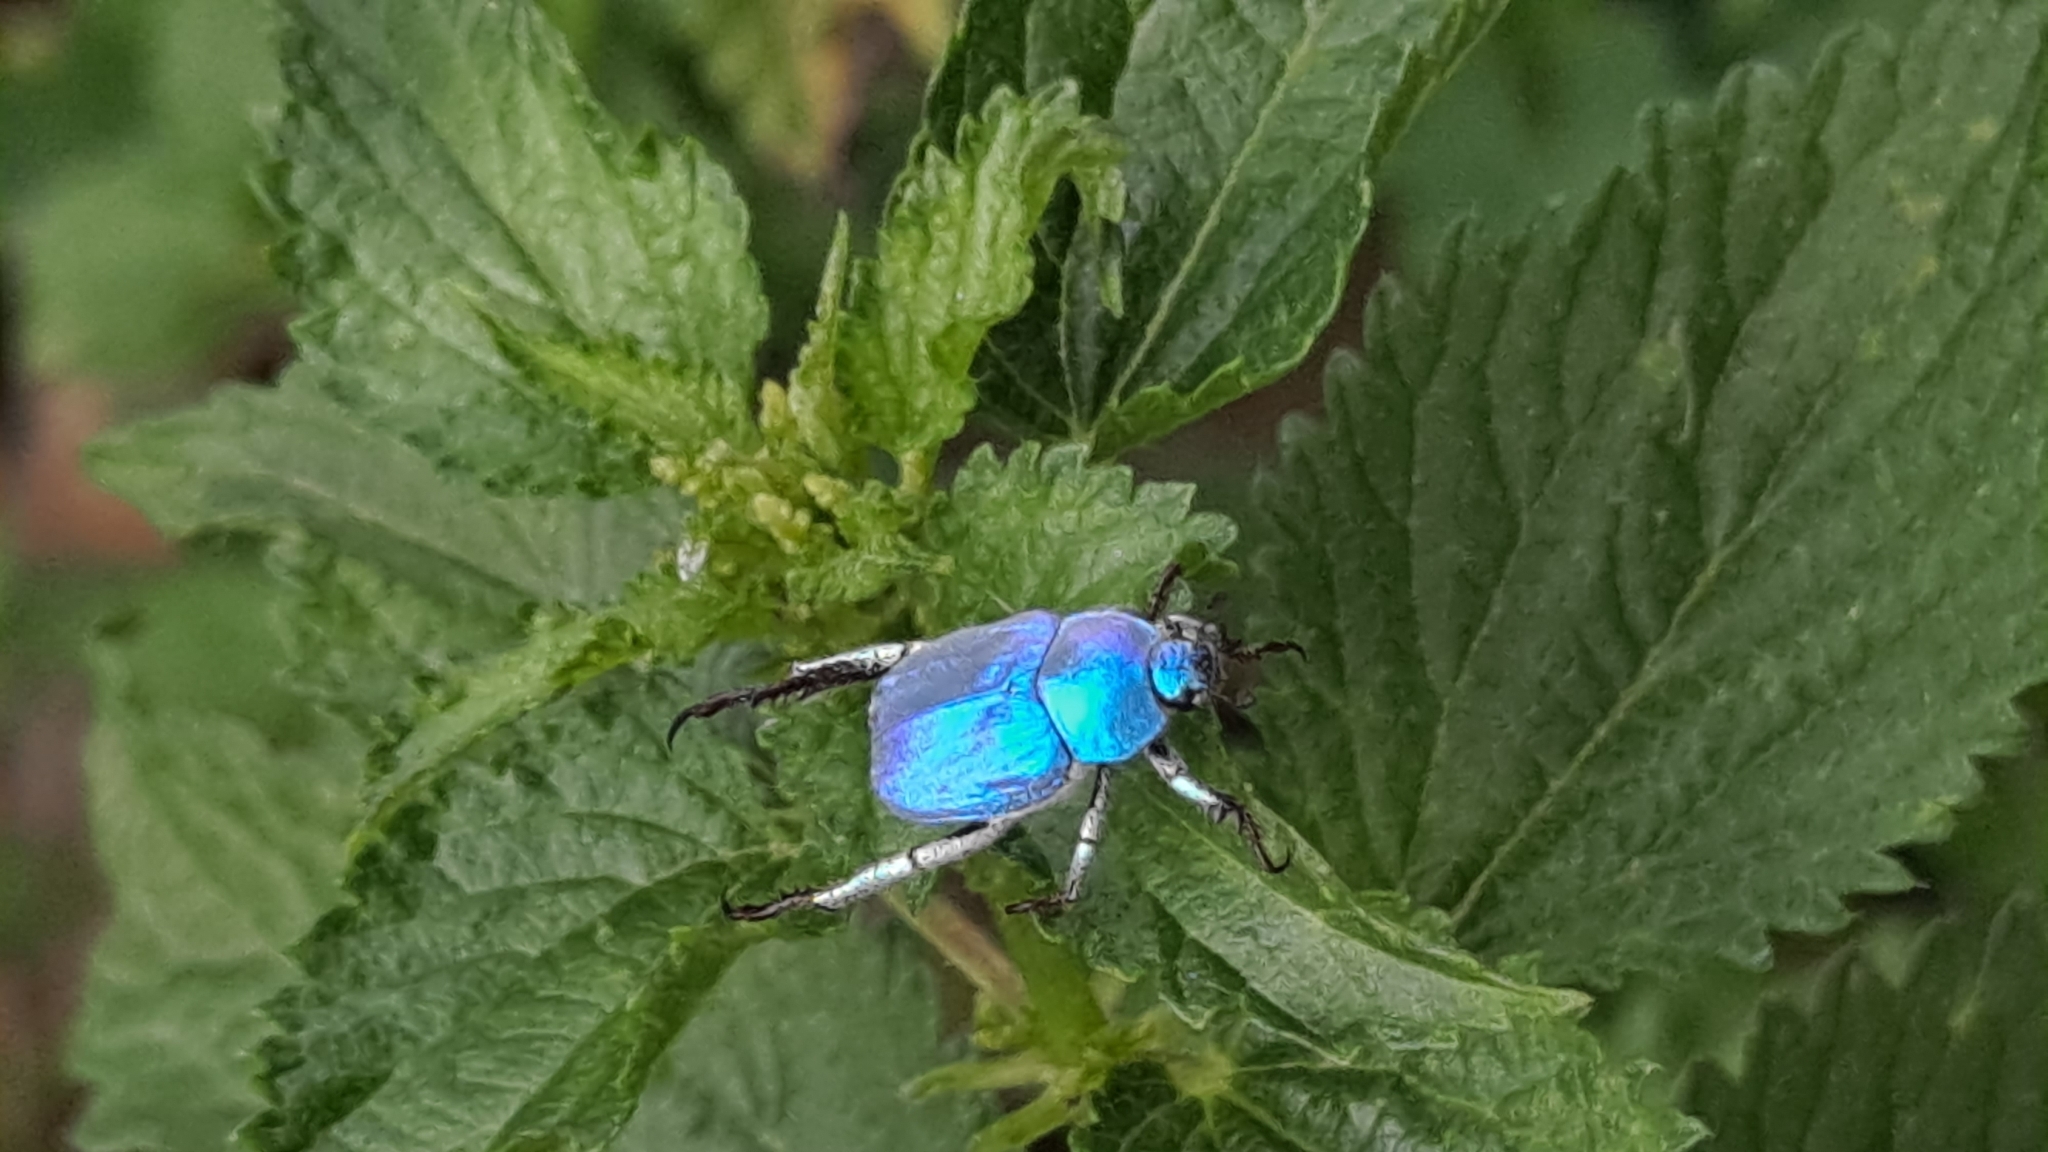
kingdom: Animalia
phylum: Arthropoda
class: Insecta
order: Coleoptera
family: Scarabaeidae
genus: Hoplia
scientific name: Hoplia coerulea
